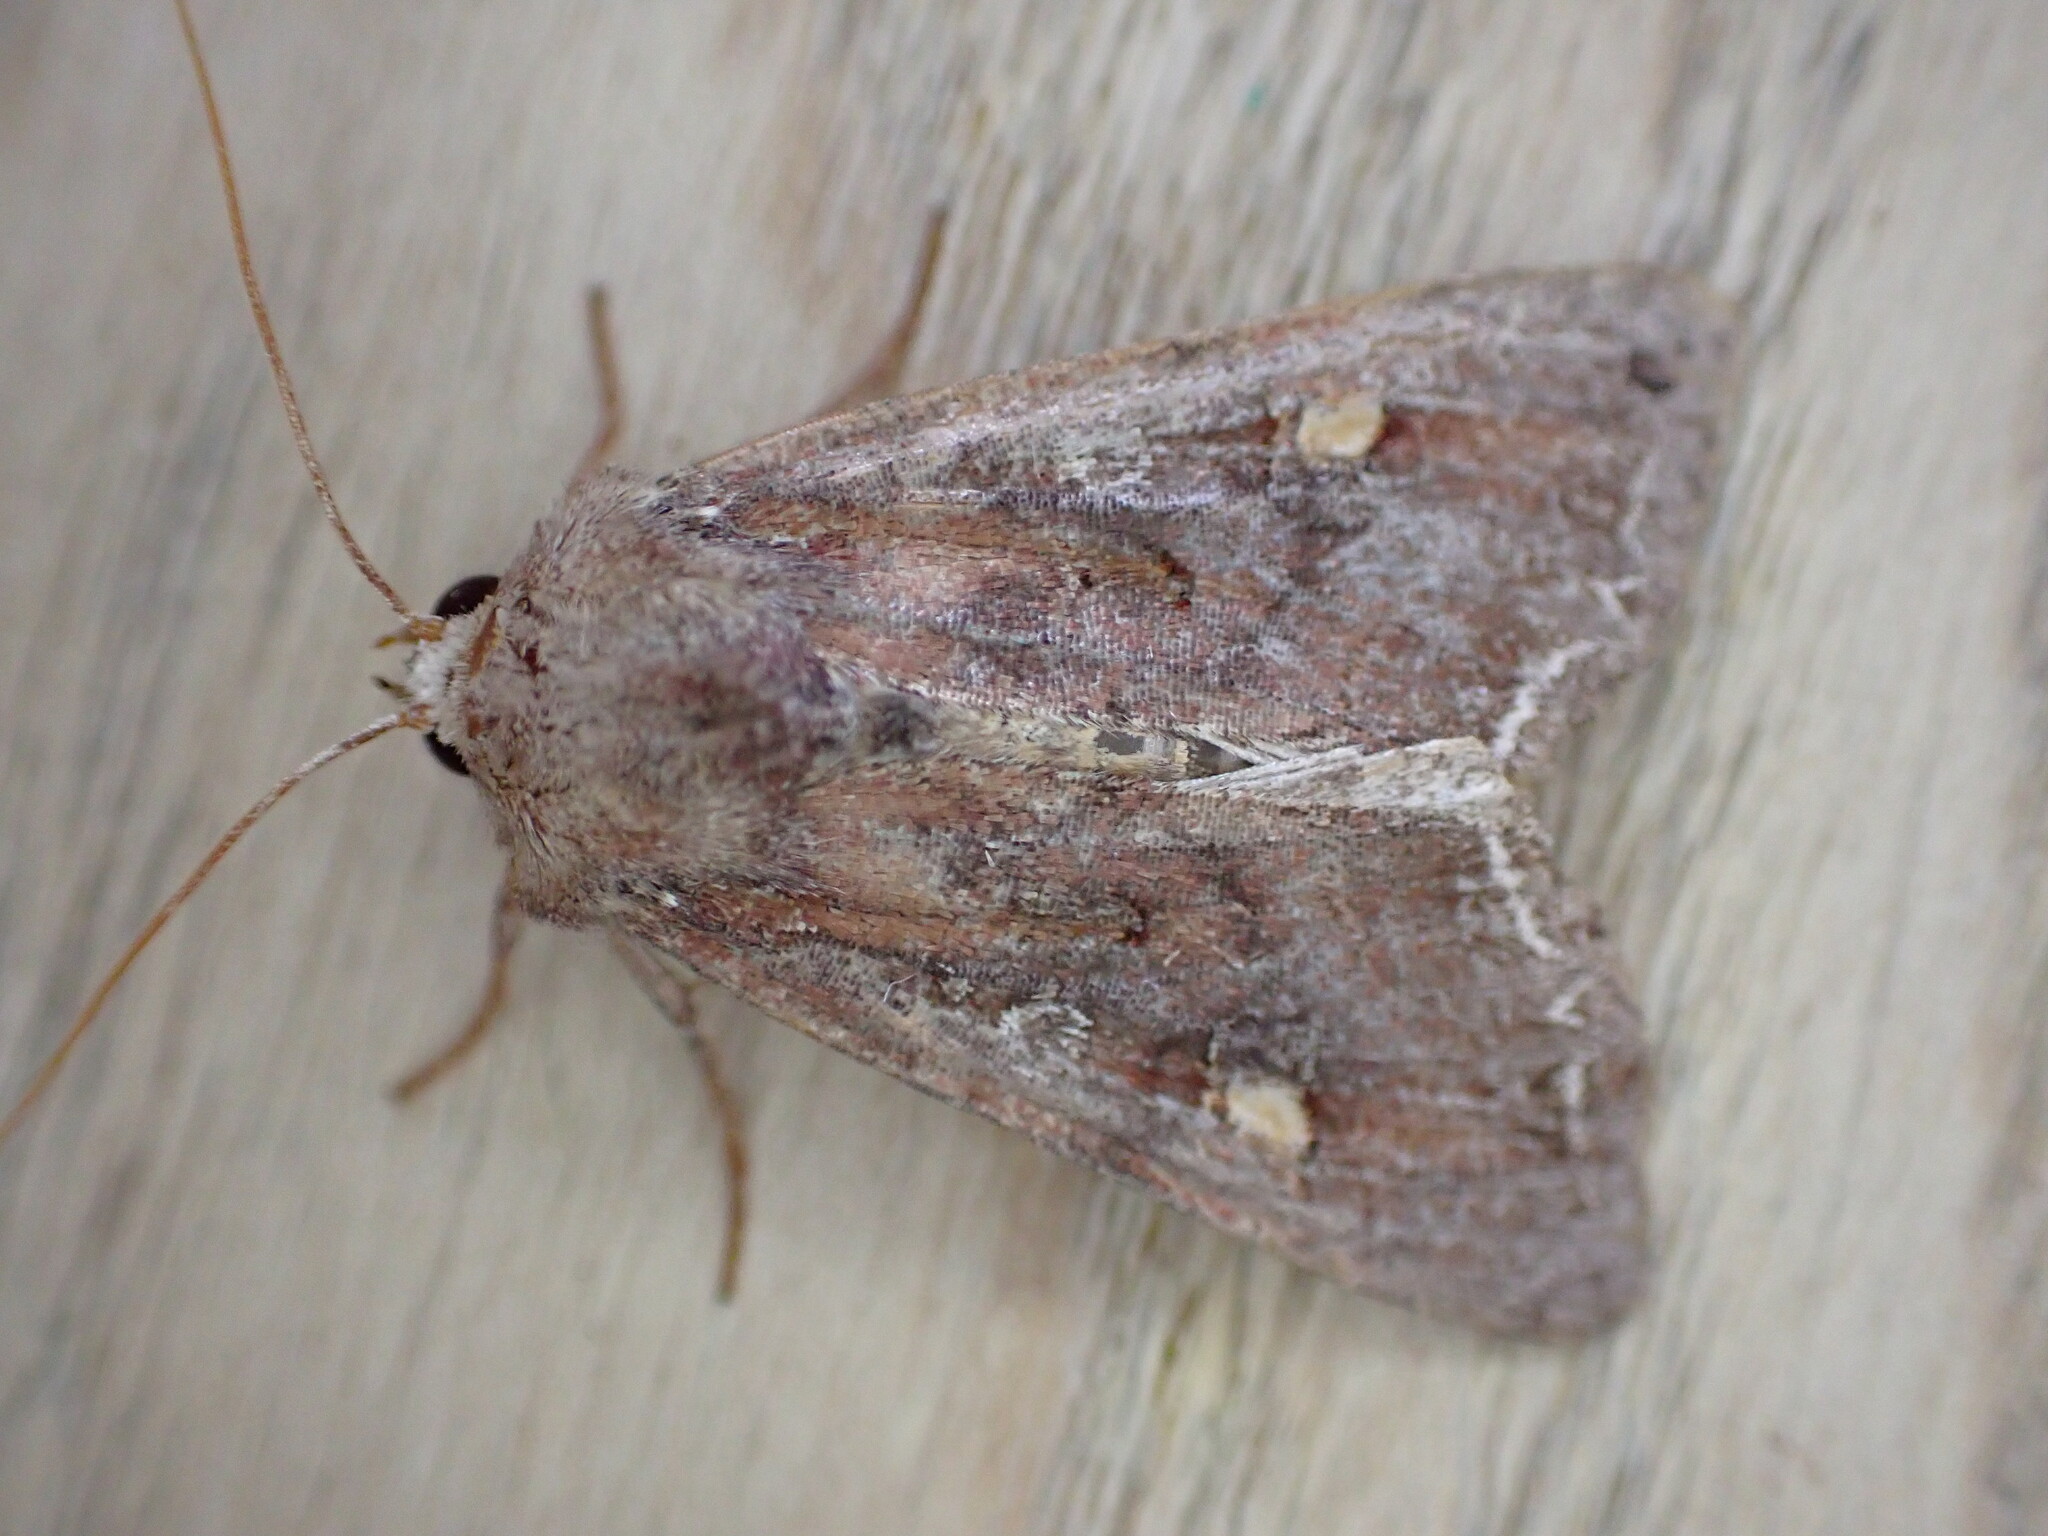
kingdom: Animalia
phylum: Arthropoda
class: Insecta
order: Lepidoptera
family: Noctuidae
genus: Lacanobia
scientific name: Lacanobia oleracea
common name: Bright-line brown-eye
